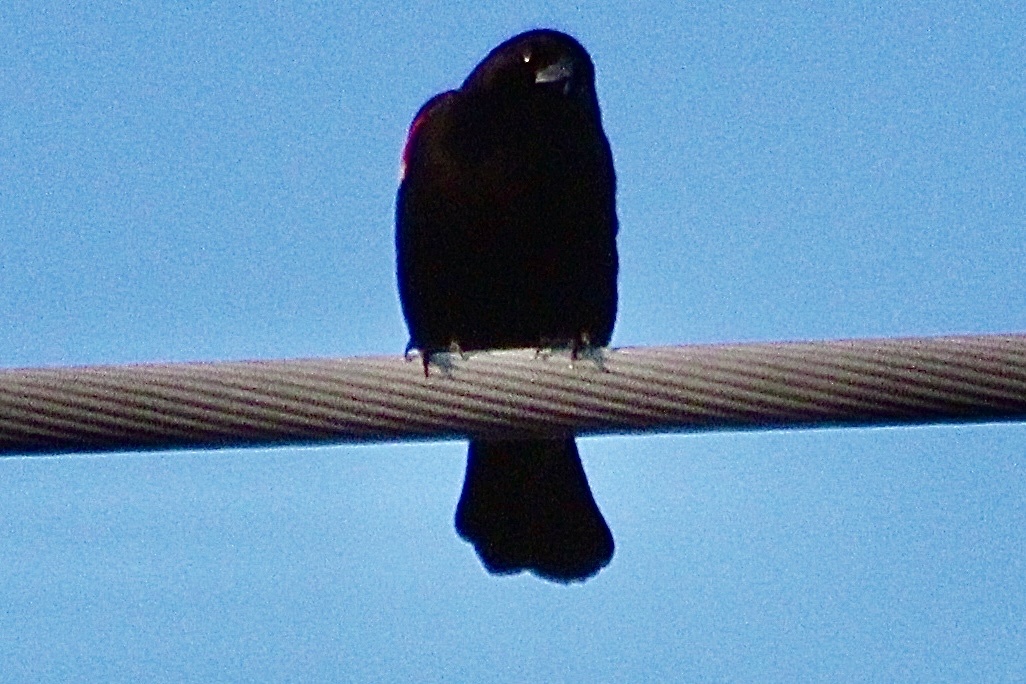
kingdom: Animalia
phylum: Chordata
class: Aves
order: Passeriformes
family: Icteridae
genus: Agelaius
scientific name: Agelaius phoeniceus
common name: Red-winged blackbird
